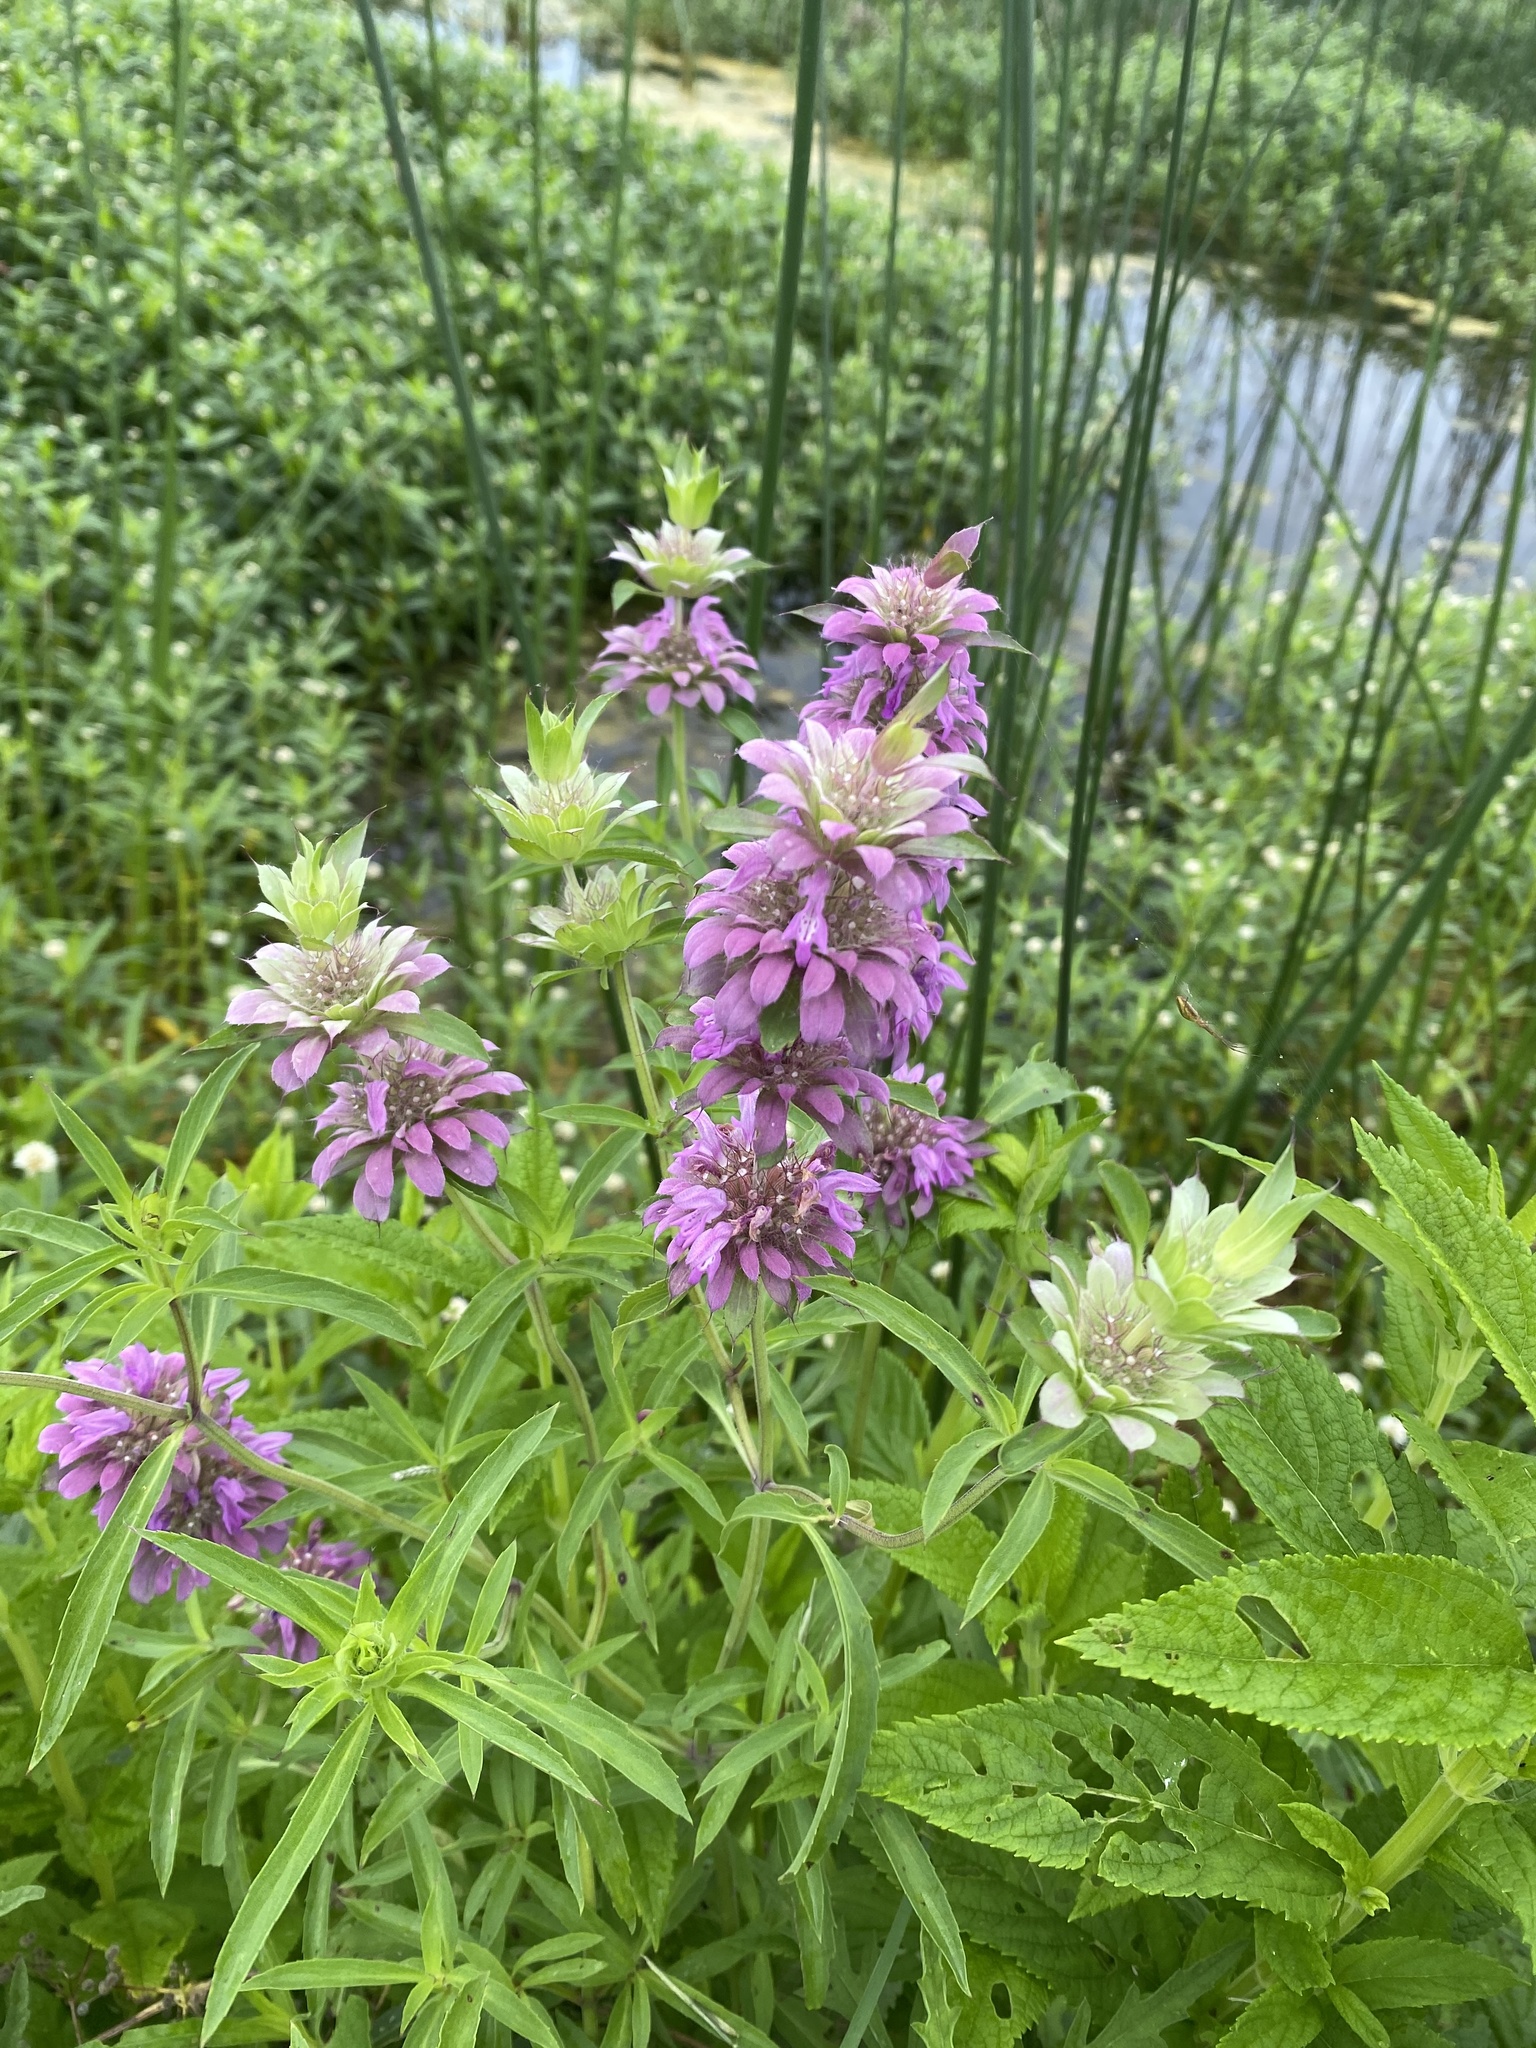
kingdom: Plantae
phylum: Tracheophyta
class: Magnoliopsida
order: Lamiales
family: Lamiaceae
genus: Monarda
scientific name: Monarda citriodora
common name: Lemon beebalm
